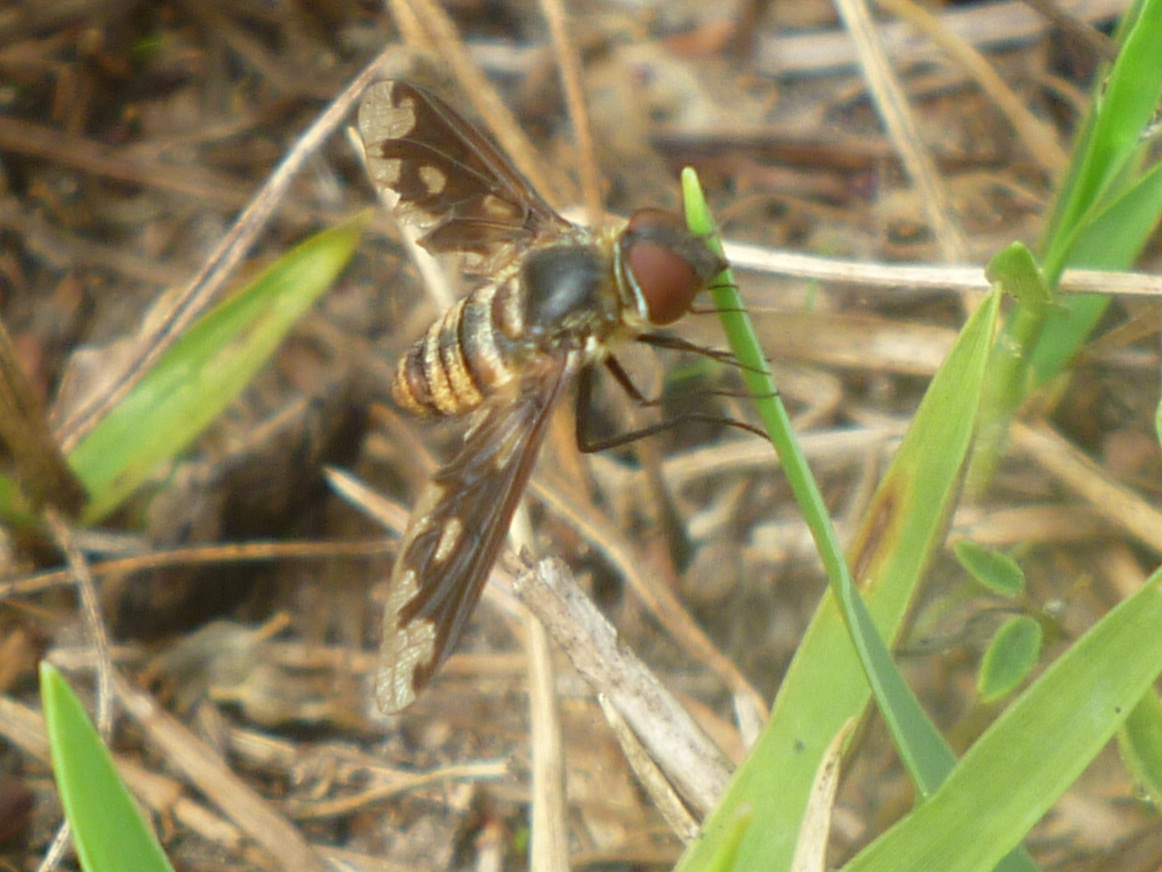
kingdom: Animalia
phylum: Arthropoda
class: Insecta
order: Diptera
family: Bombyliidae
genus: Exoprosopa
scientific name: Exoprosopa fascipennis
